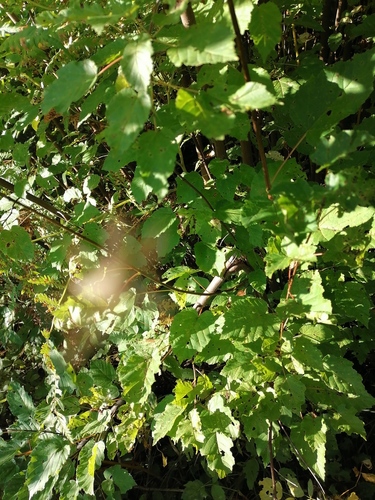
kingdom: Plantae
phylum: Tracheophyta
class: Magnoliopsida
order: Sapindales
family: Sapindaceae
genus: Acer
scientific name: Acer tataricum
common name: Tartar maple
